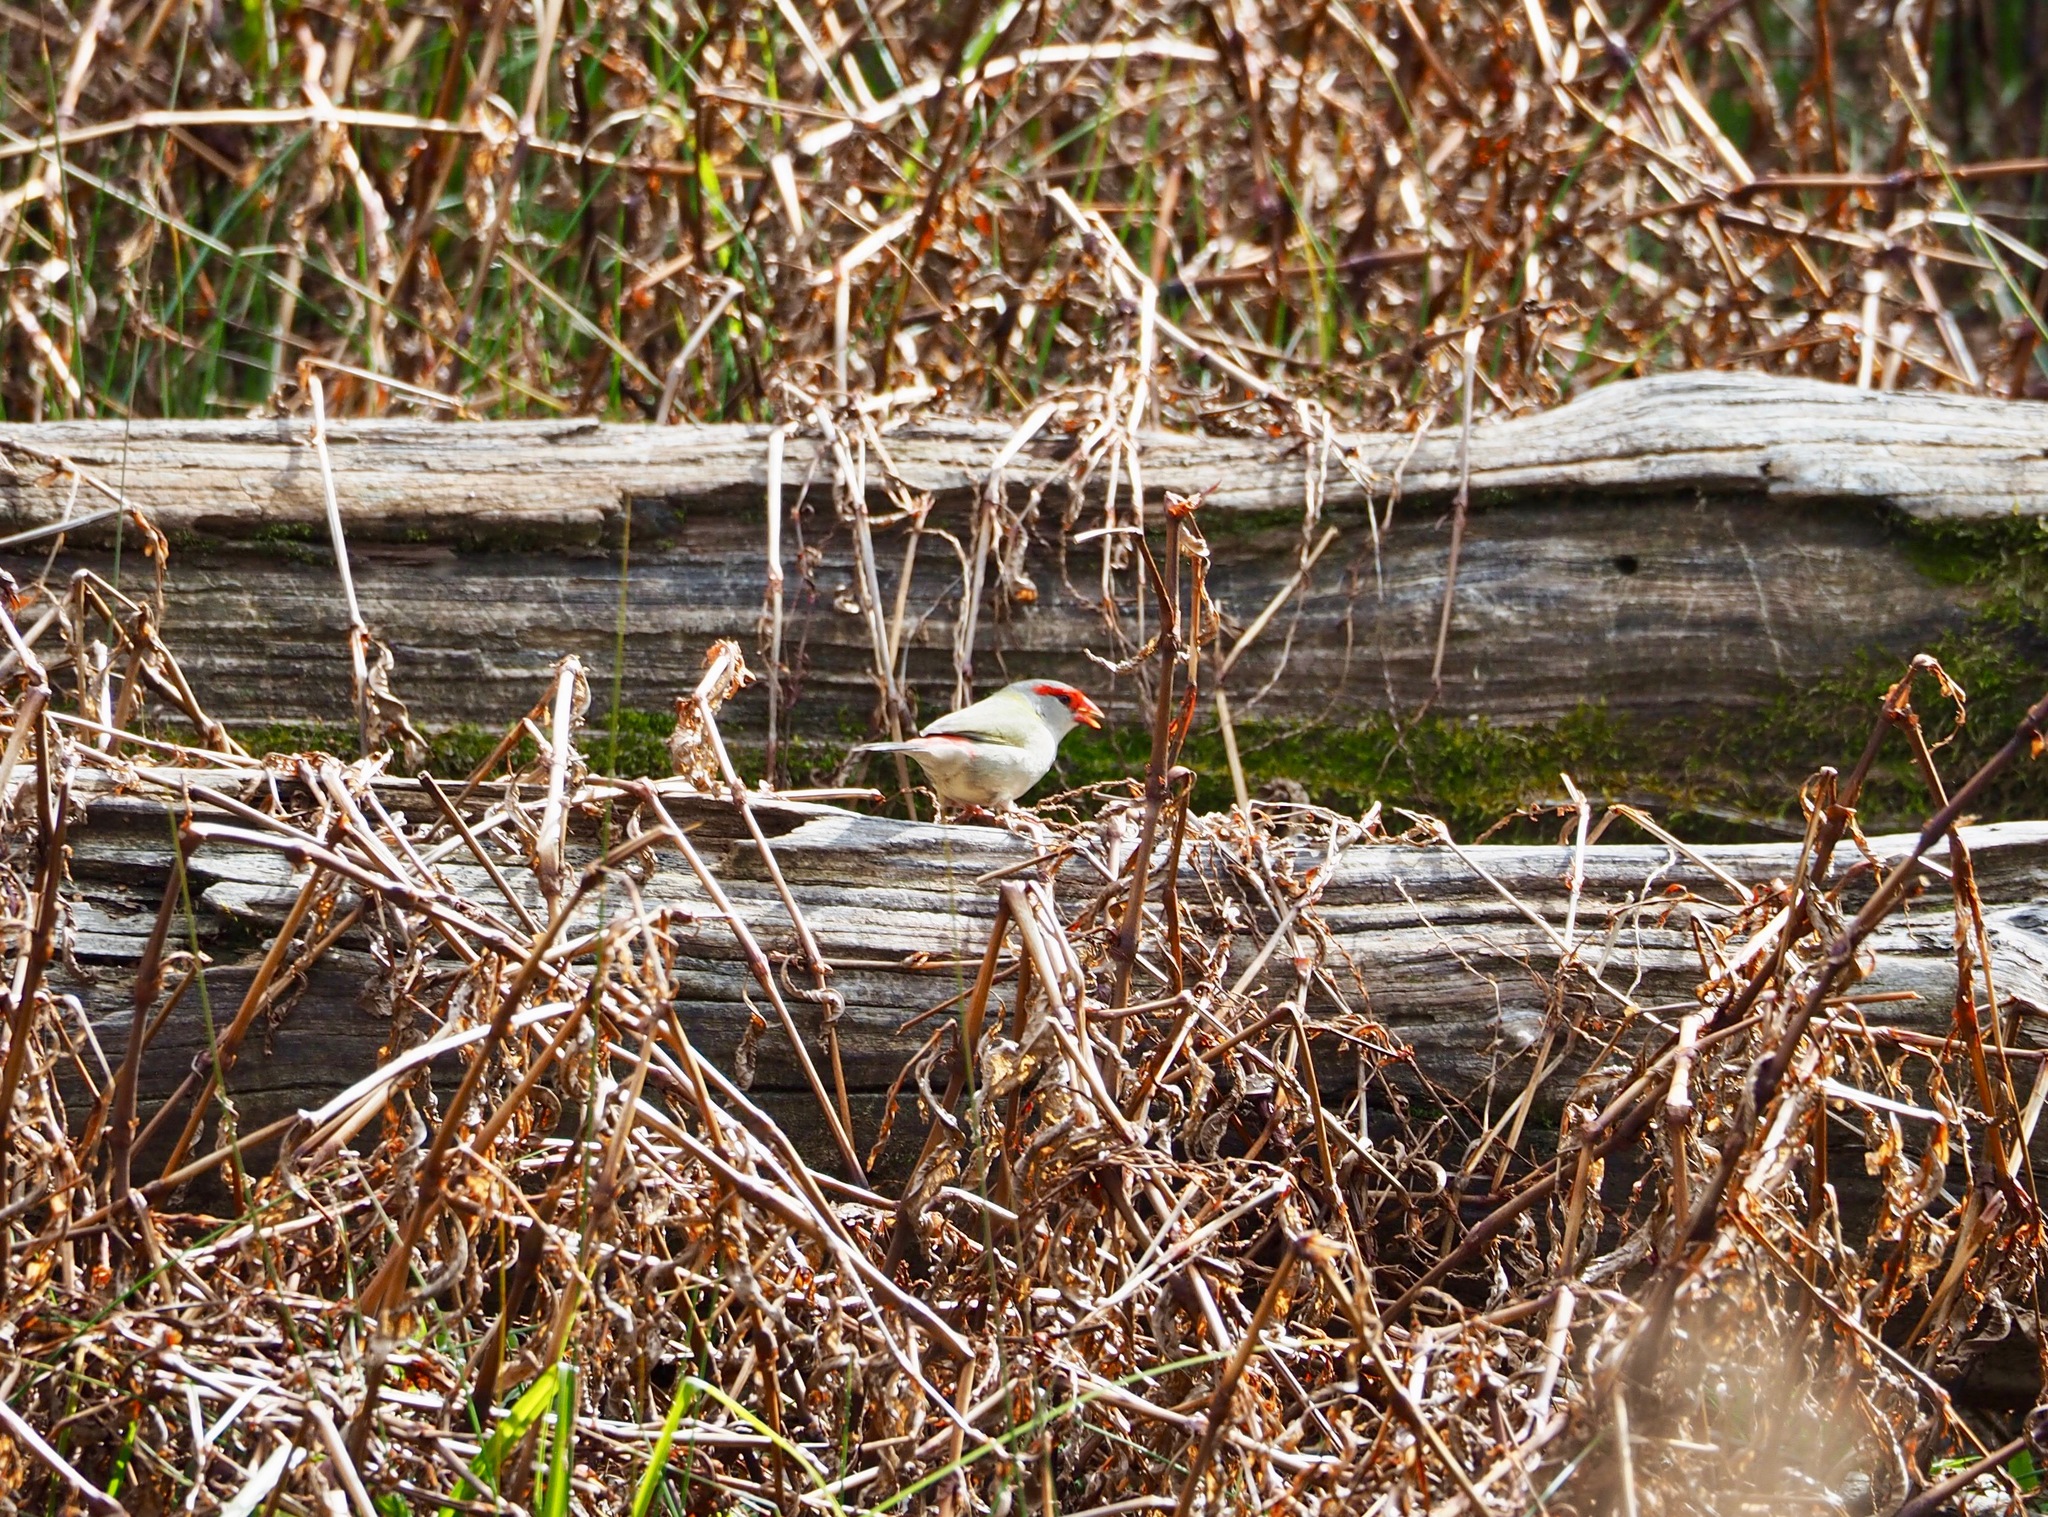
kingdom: Animalia
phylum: Chordata
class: Aves
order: Passeriformes
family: Estrildidae
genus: Neochmia
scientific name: Neochmia temporalis
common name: Red-browed finch
